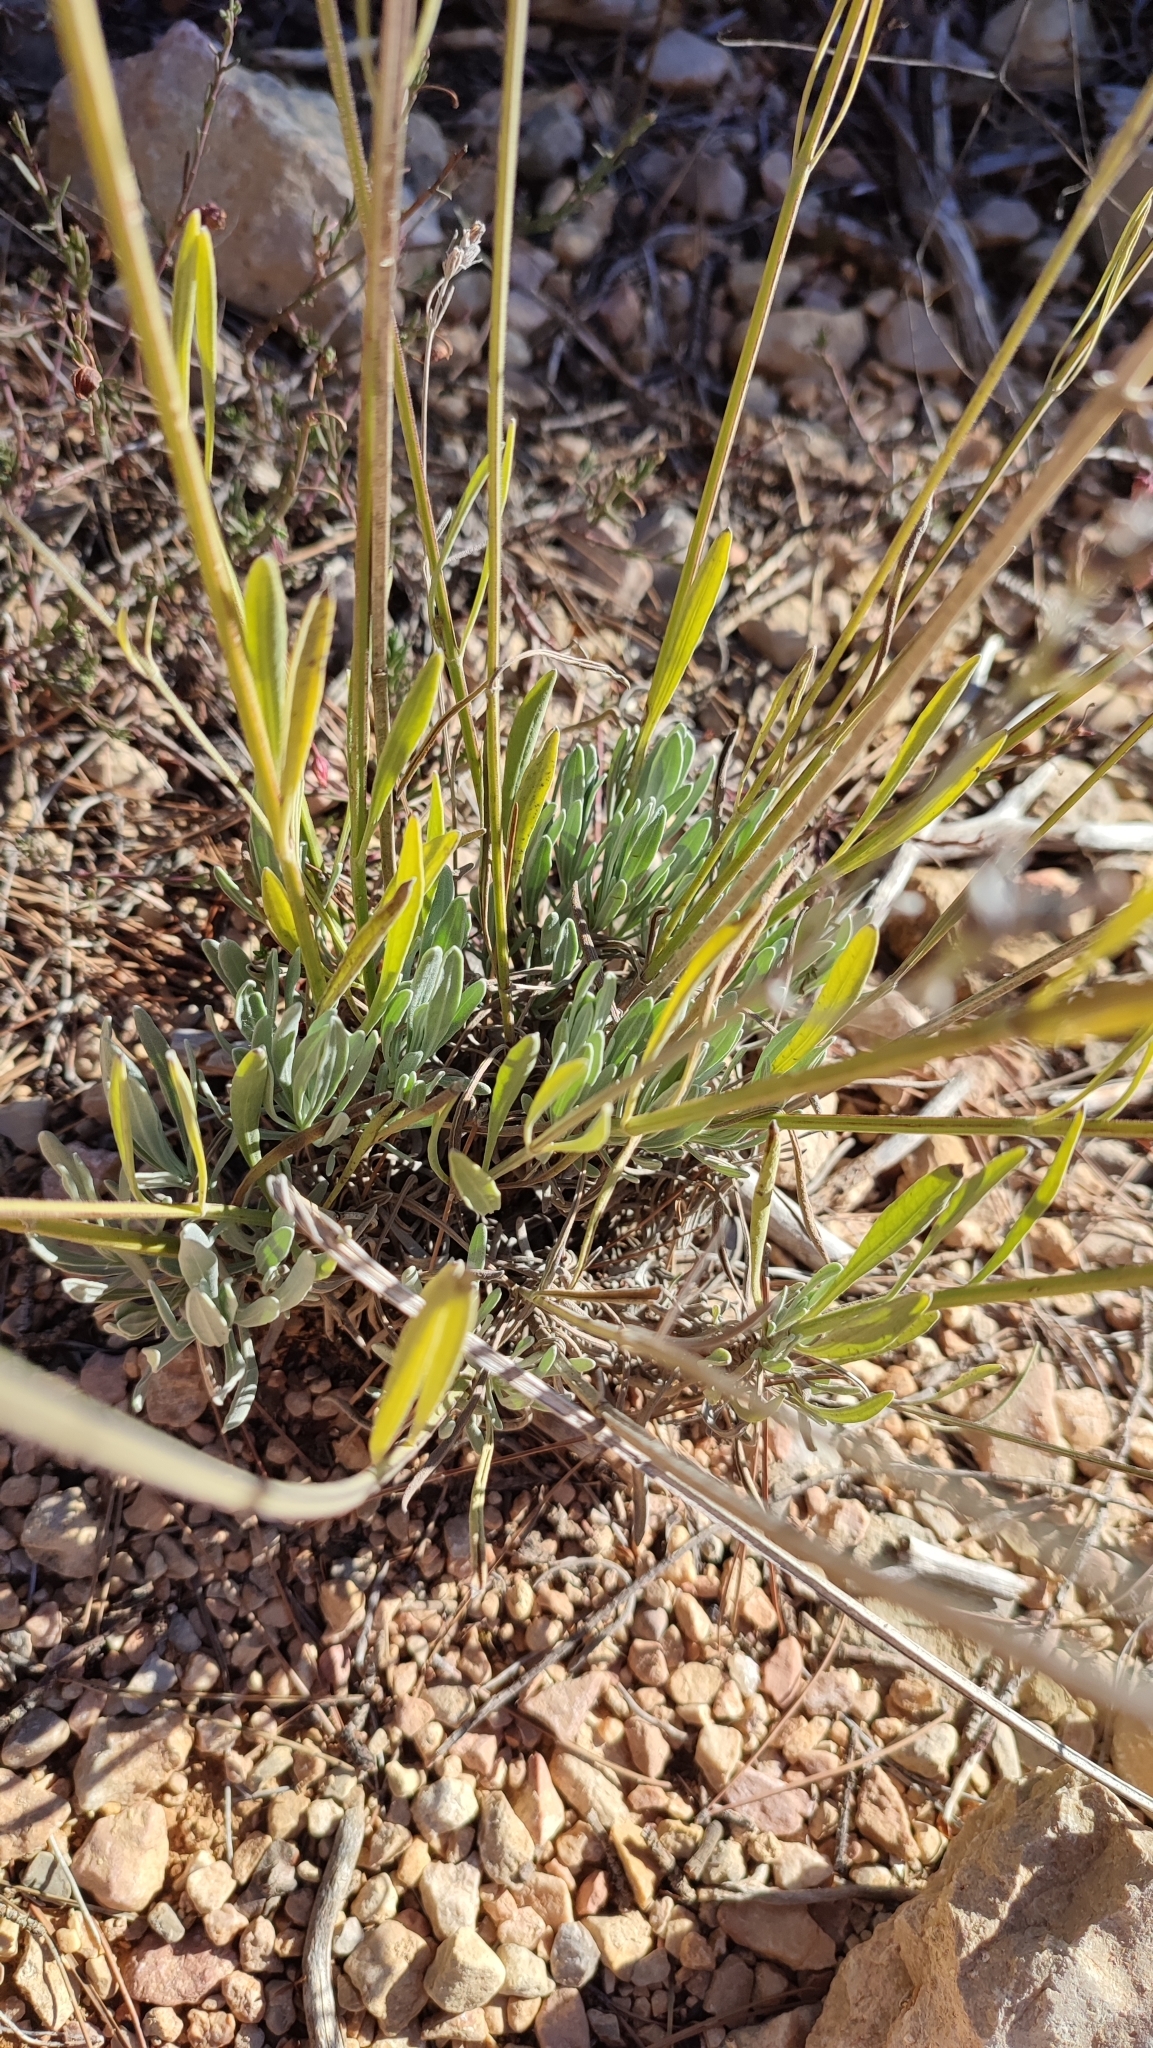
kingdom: Plantae
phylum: Tracheophyta
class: Magnoliopsida
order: Lamiales
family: Lamiaceae
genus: Lavandula
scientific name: Lavandula latifolia
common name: Spike lavendar
